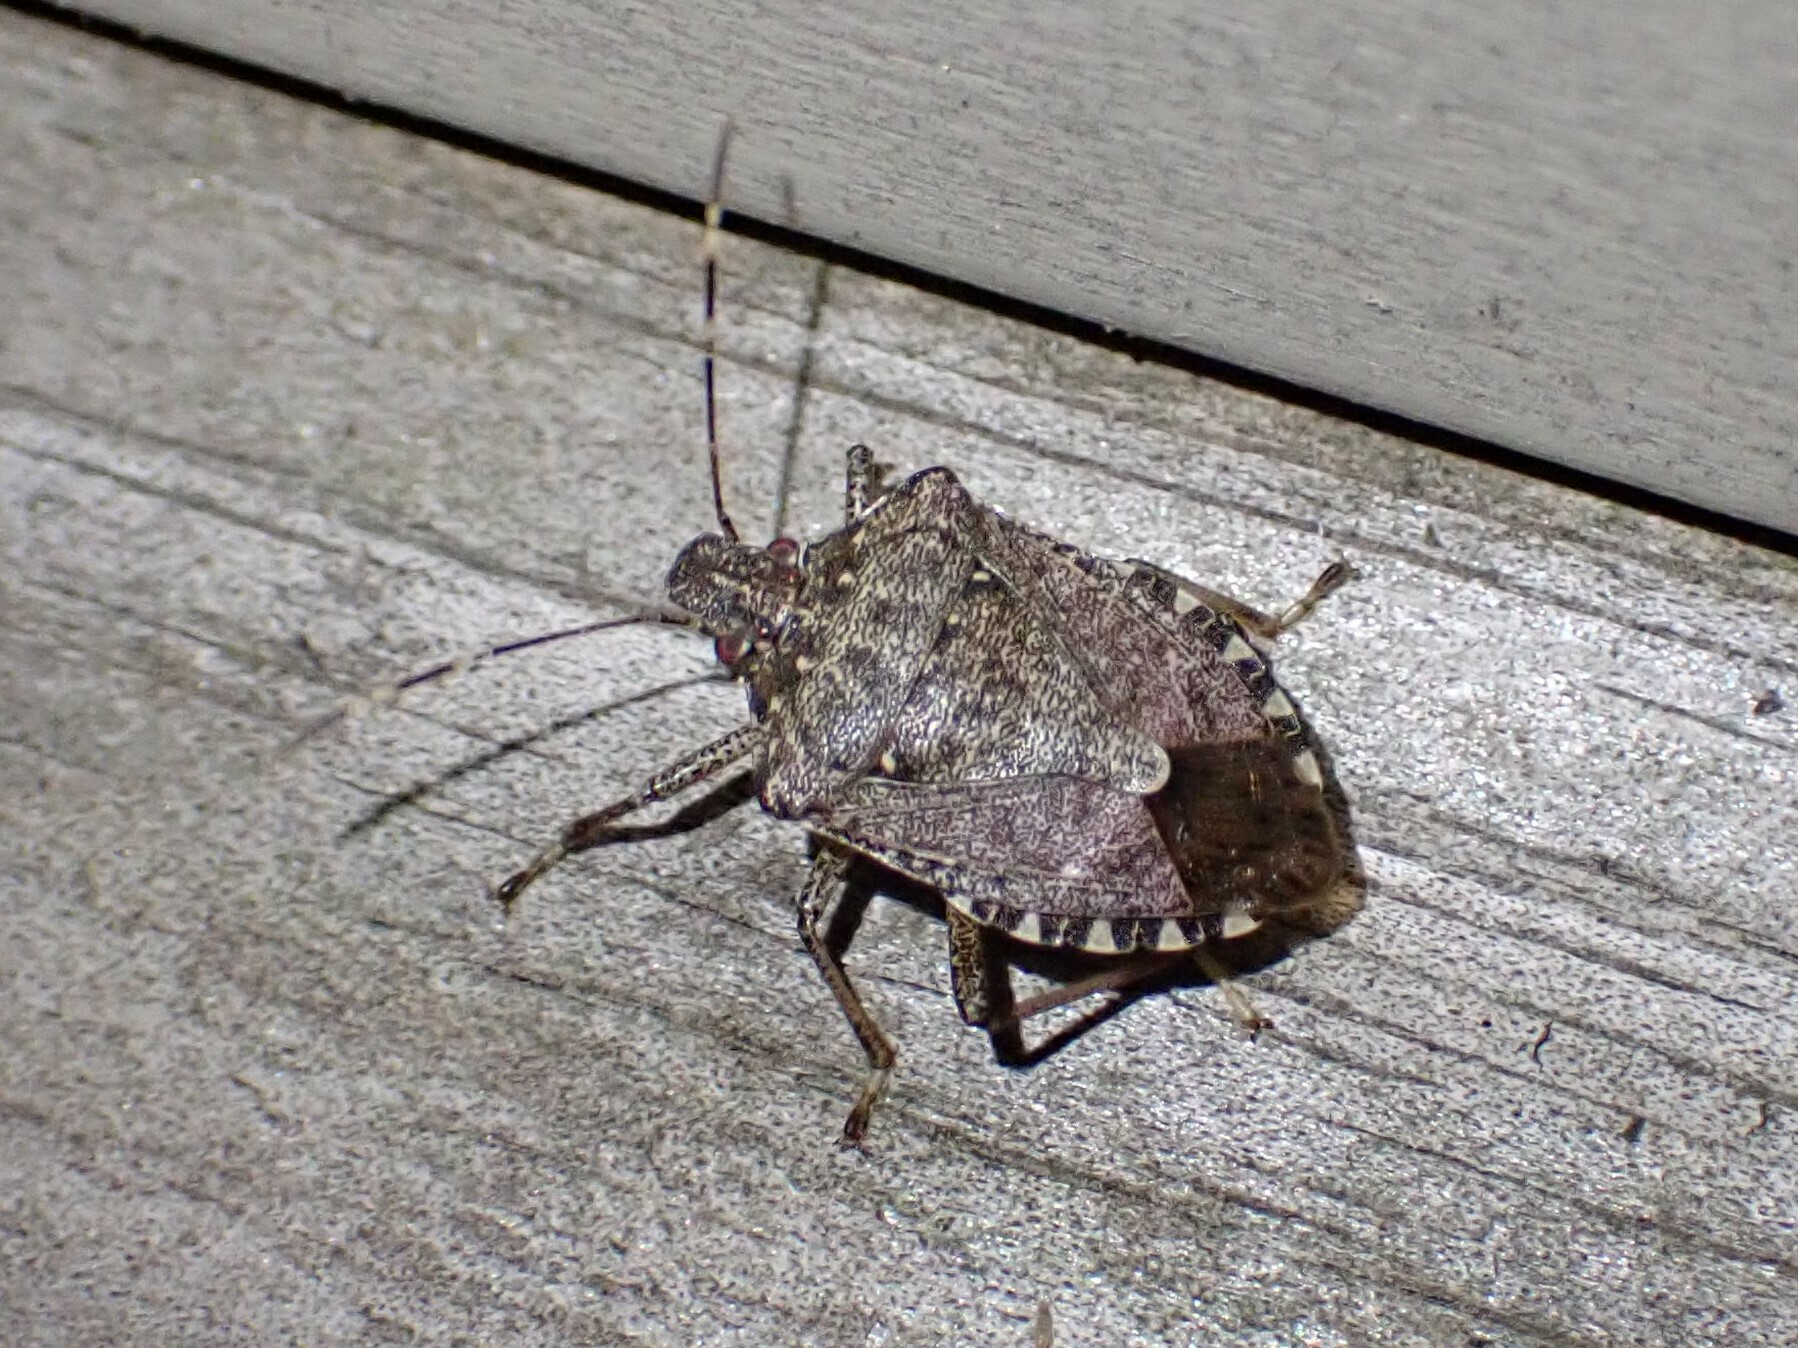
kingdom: Animalia
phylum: Arthropoda
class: Insecta
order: Hemiptera
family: Pentatomidae
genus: Halyomorpha
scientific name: Halyomorpha halys
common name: Brown marmorated stink bug
